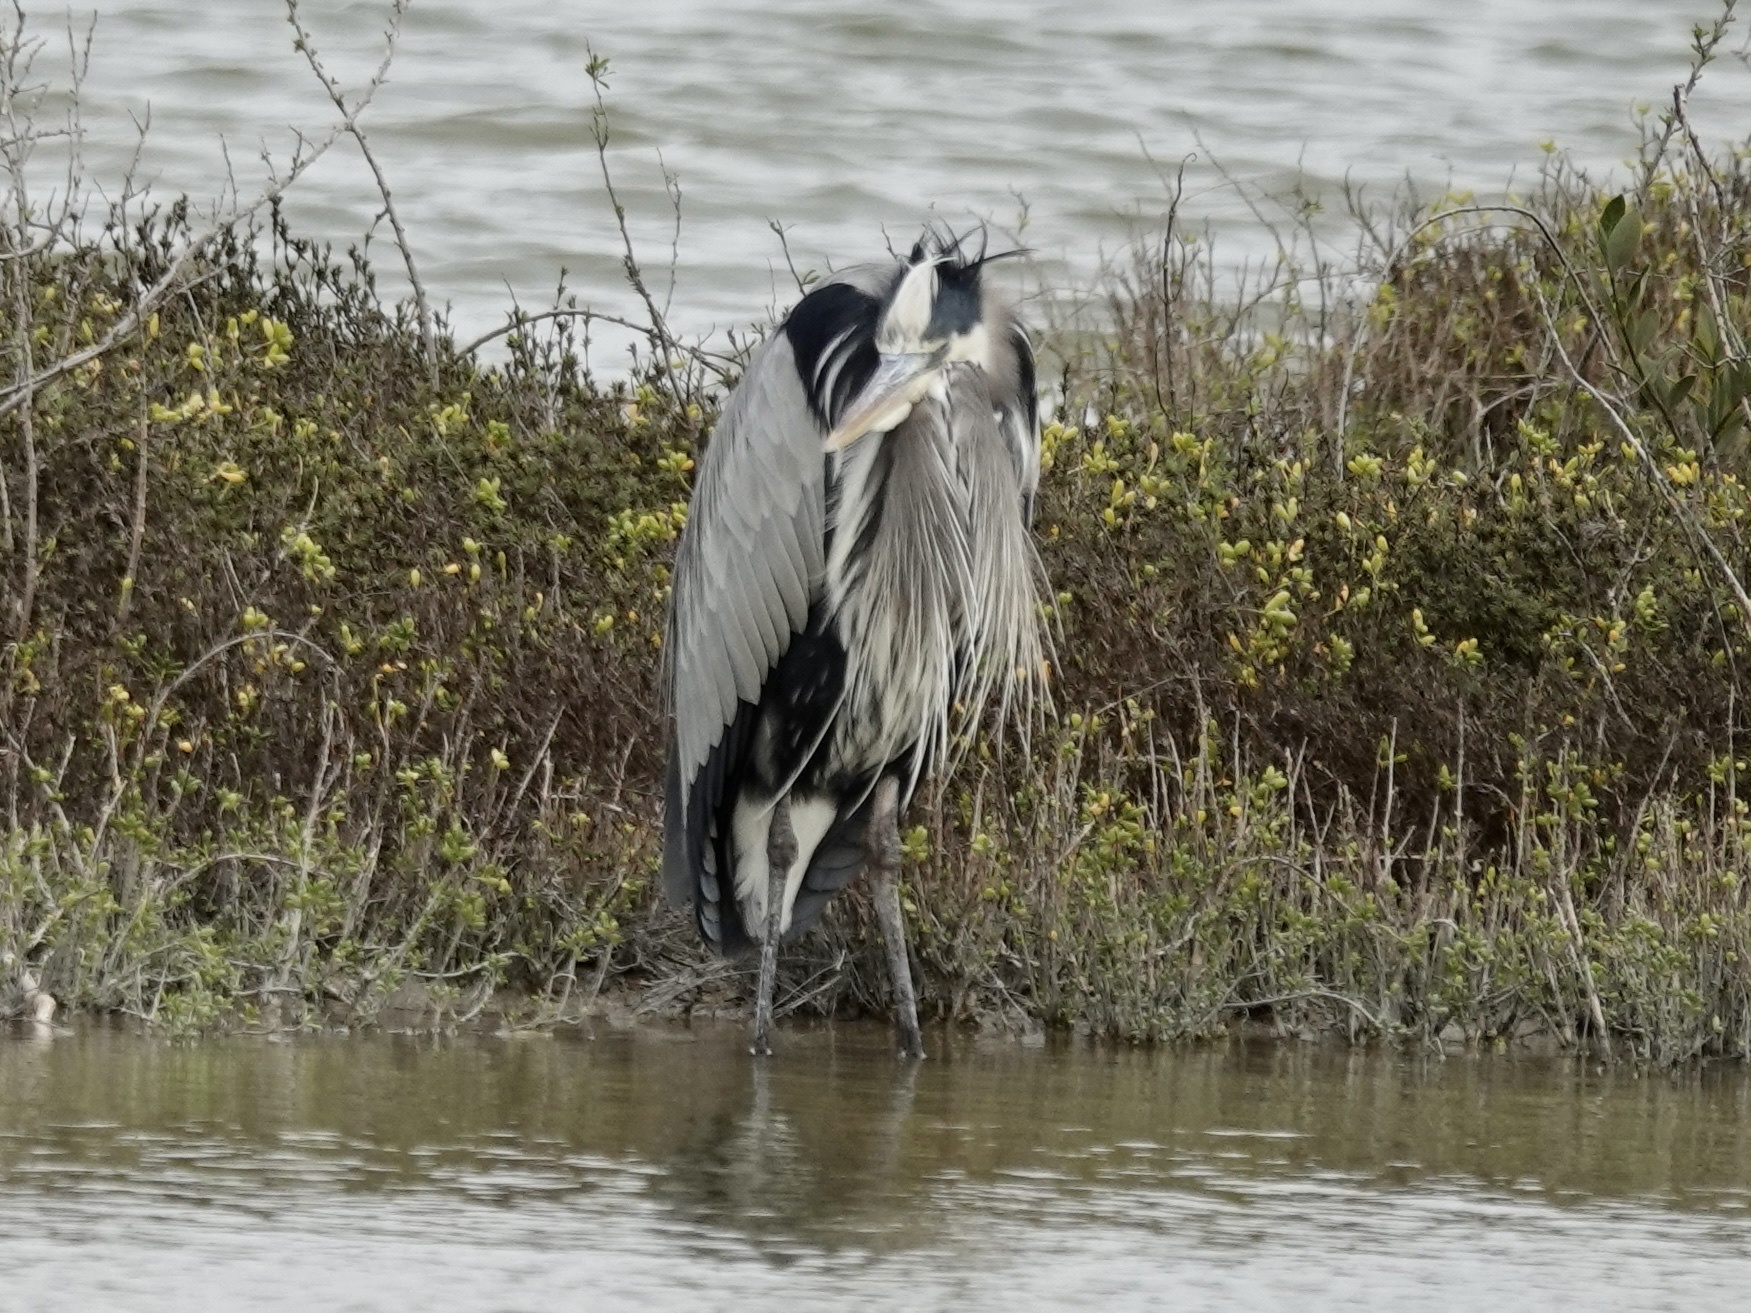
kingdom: Animalia
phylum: Chordata
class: Aves
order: Pelecaniformes
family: Ardeidae
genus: Ardea
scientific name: Ardea herodias
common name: Great blue heron
